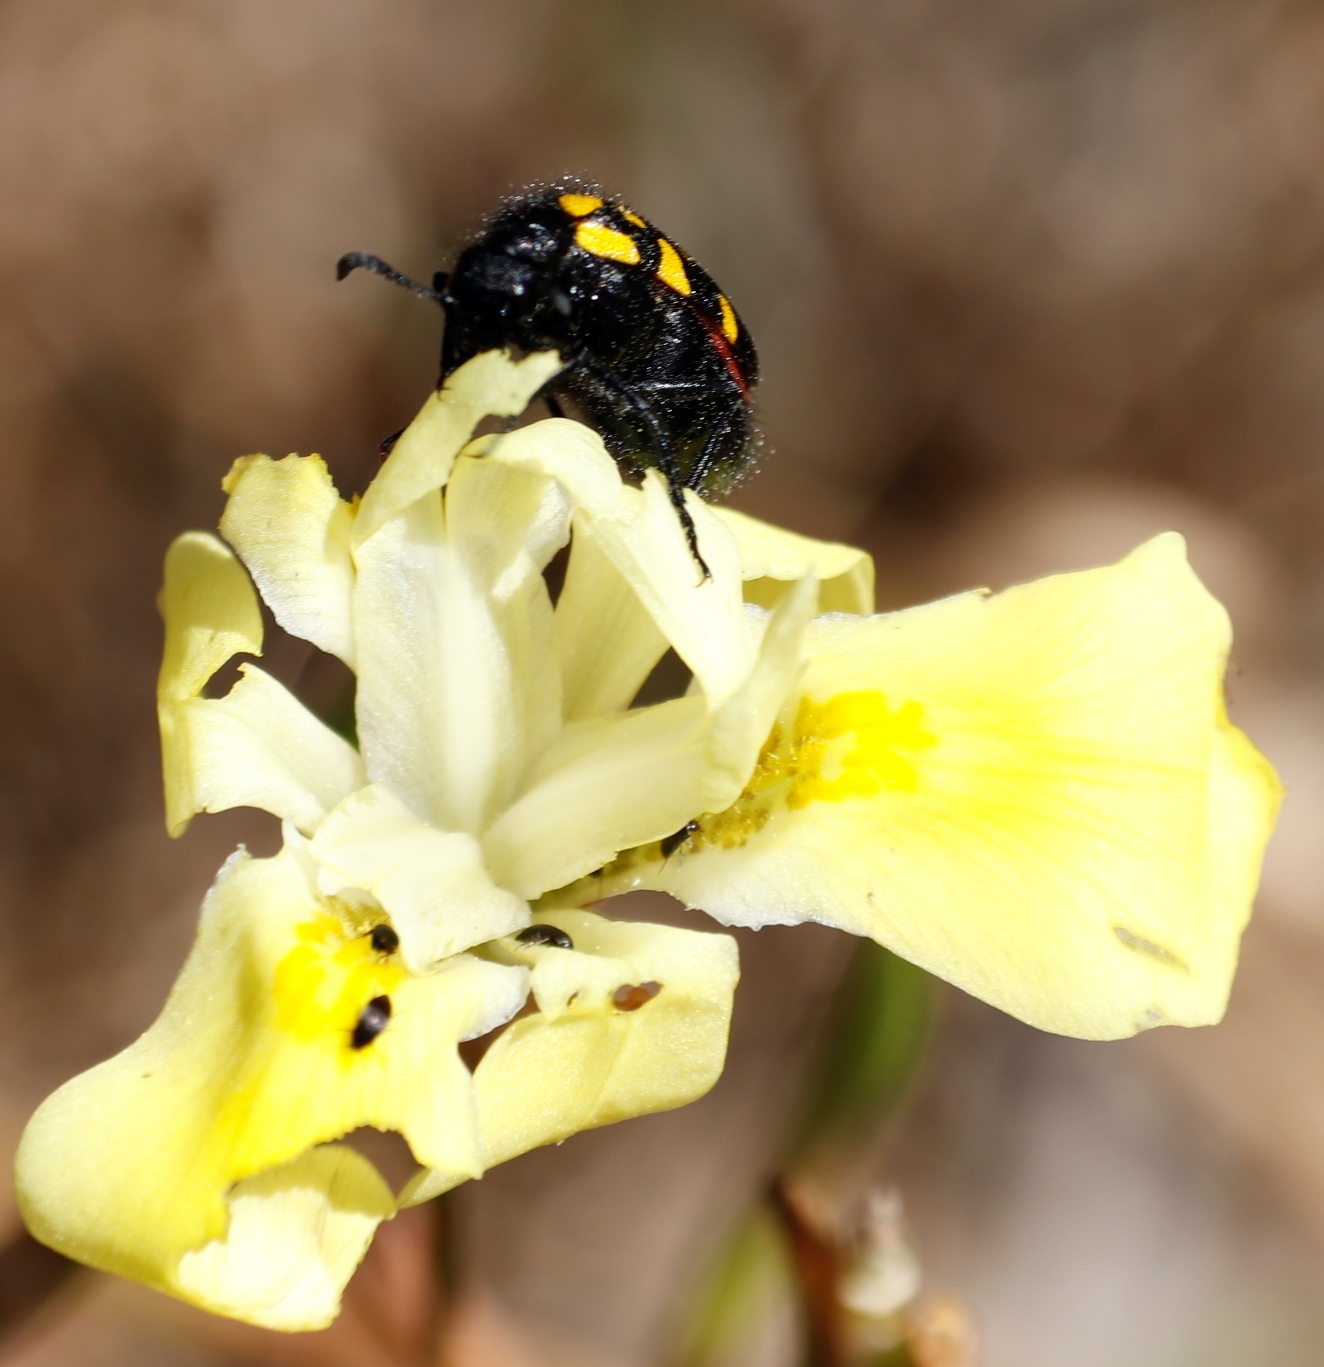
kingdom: Animalia
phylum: Arthropoda
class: Insecta
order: Coleoptera
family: Meloidae
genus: Ceroctis
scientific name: Ceroctis capensis
